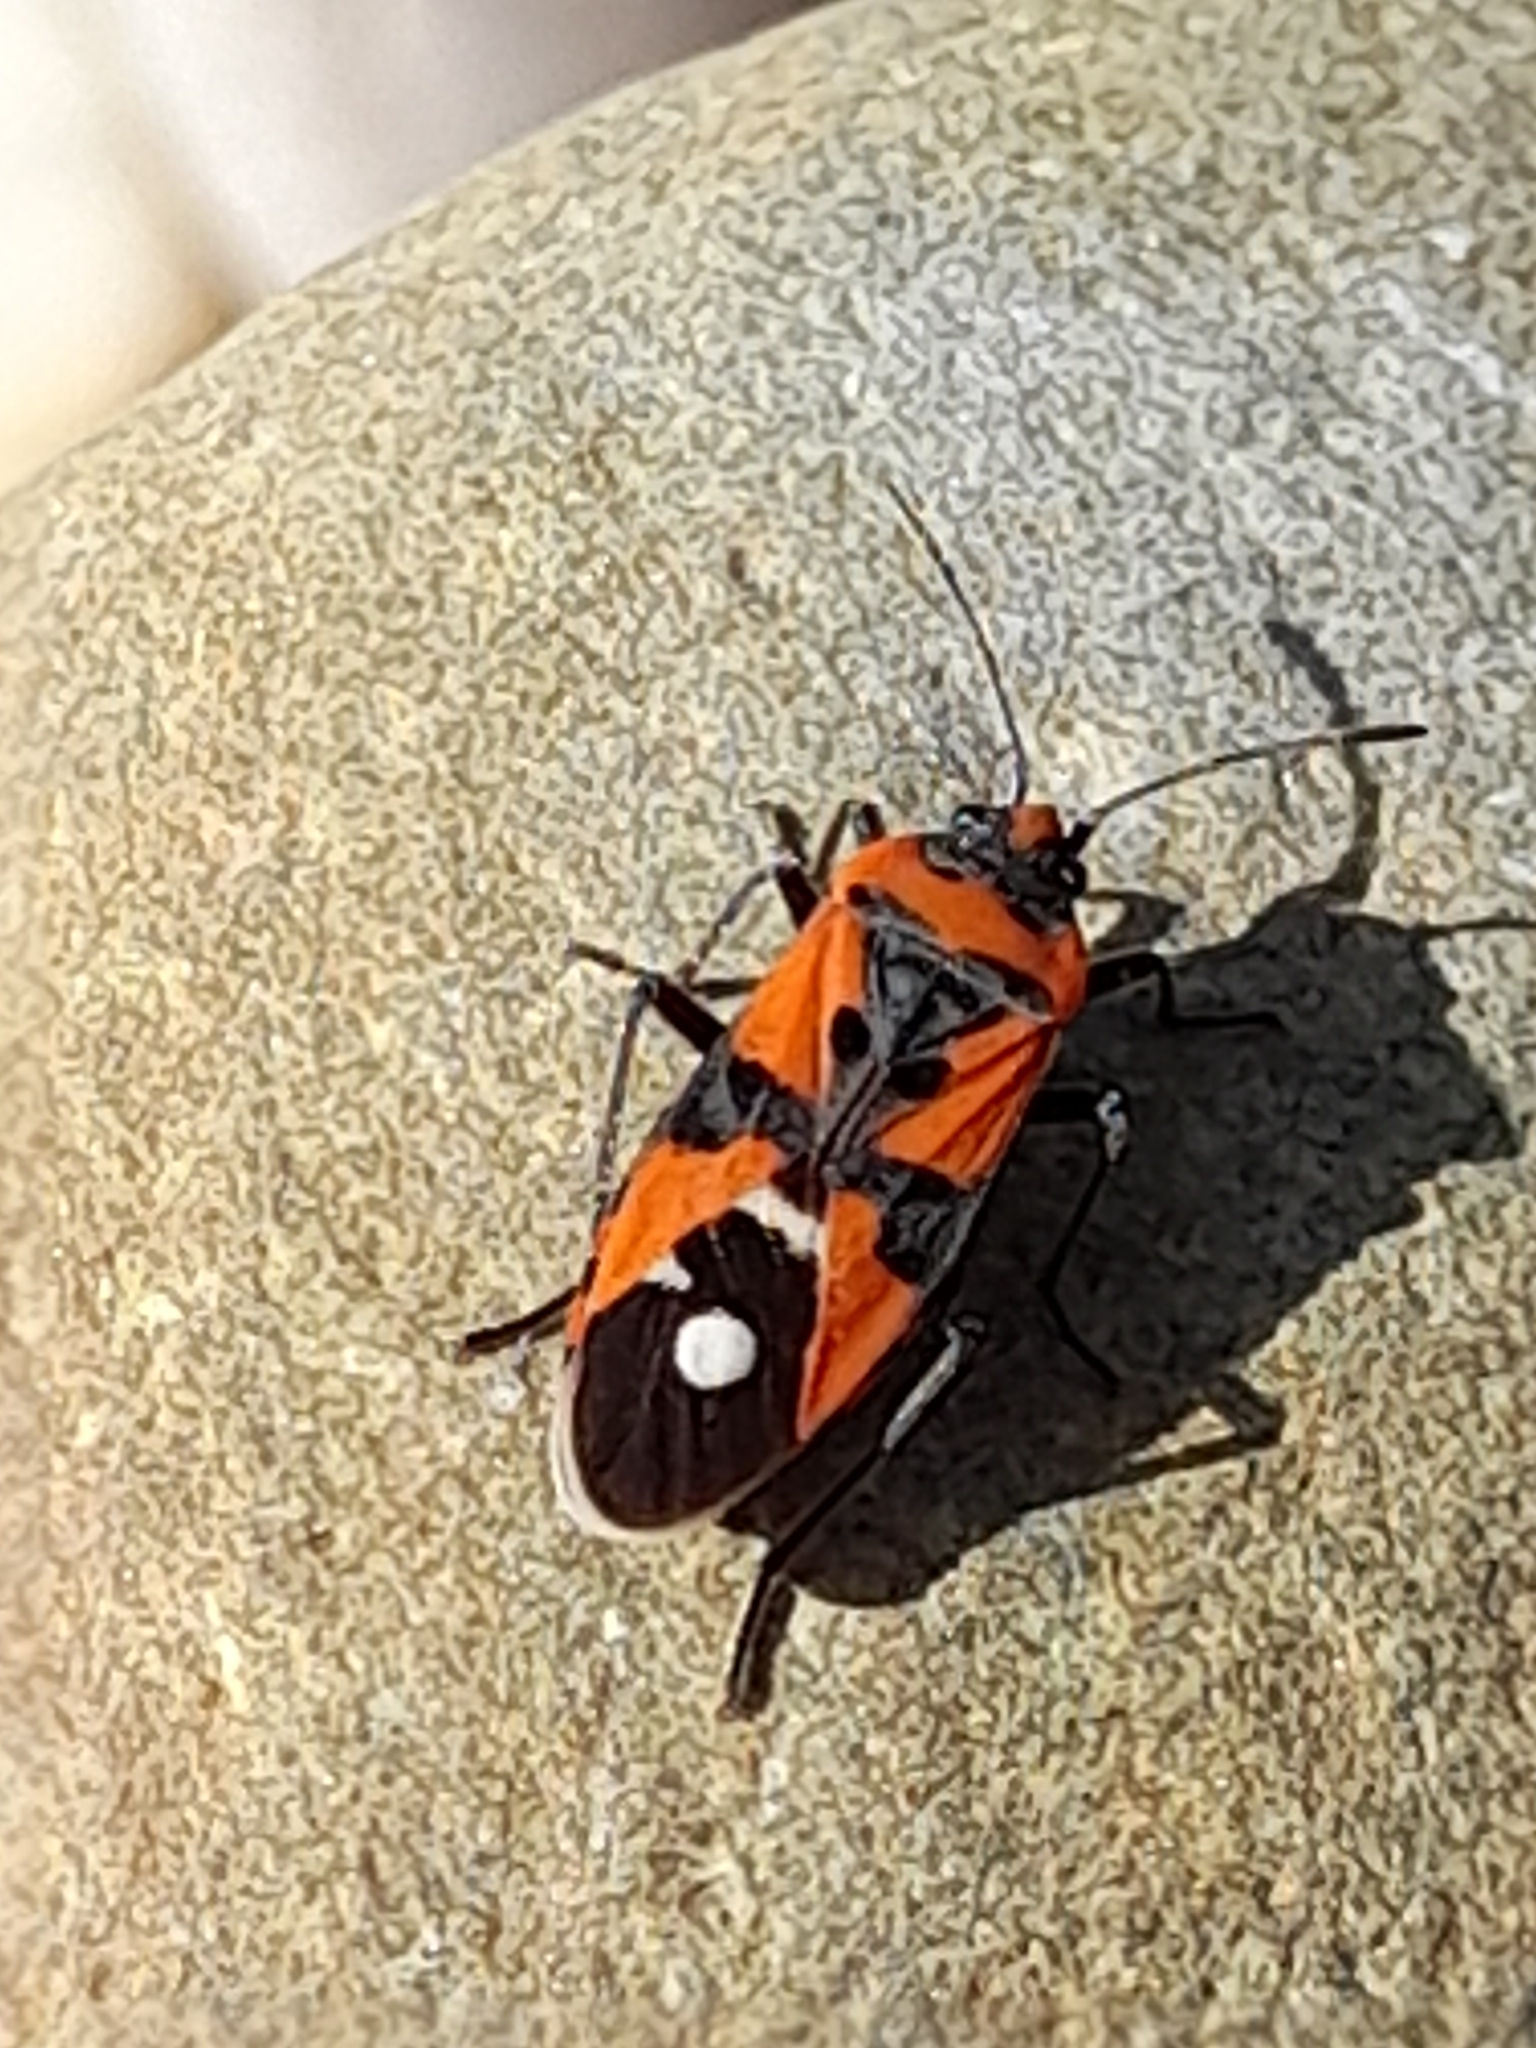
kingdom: Animalia
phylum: Arthropoda
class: Insecta
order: Hemiptera
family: Lygaeidae
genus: Lygaeus
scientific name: Lygaeus equestris
